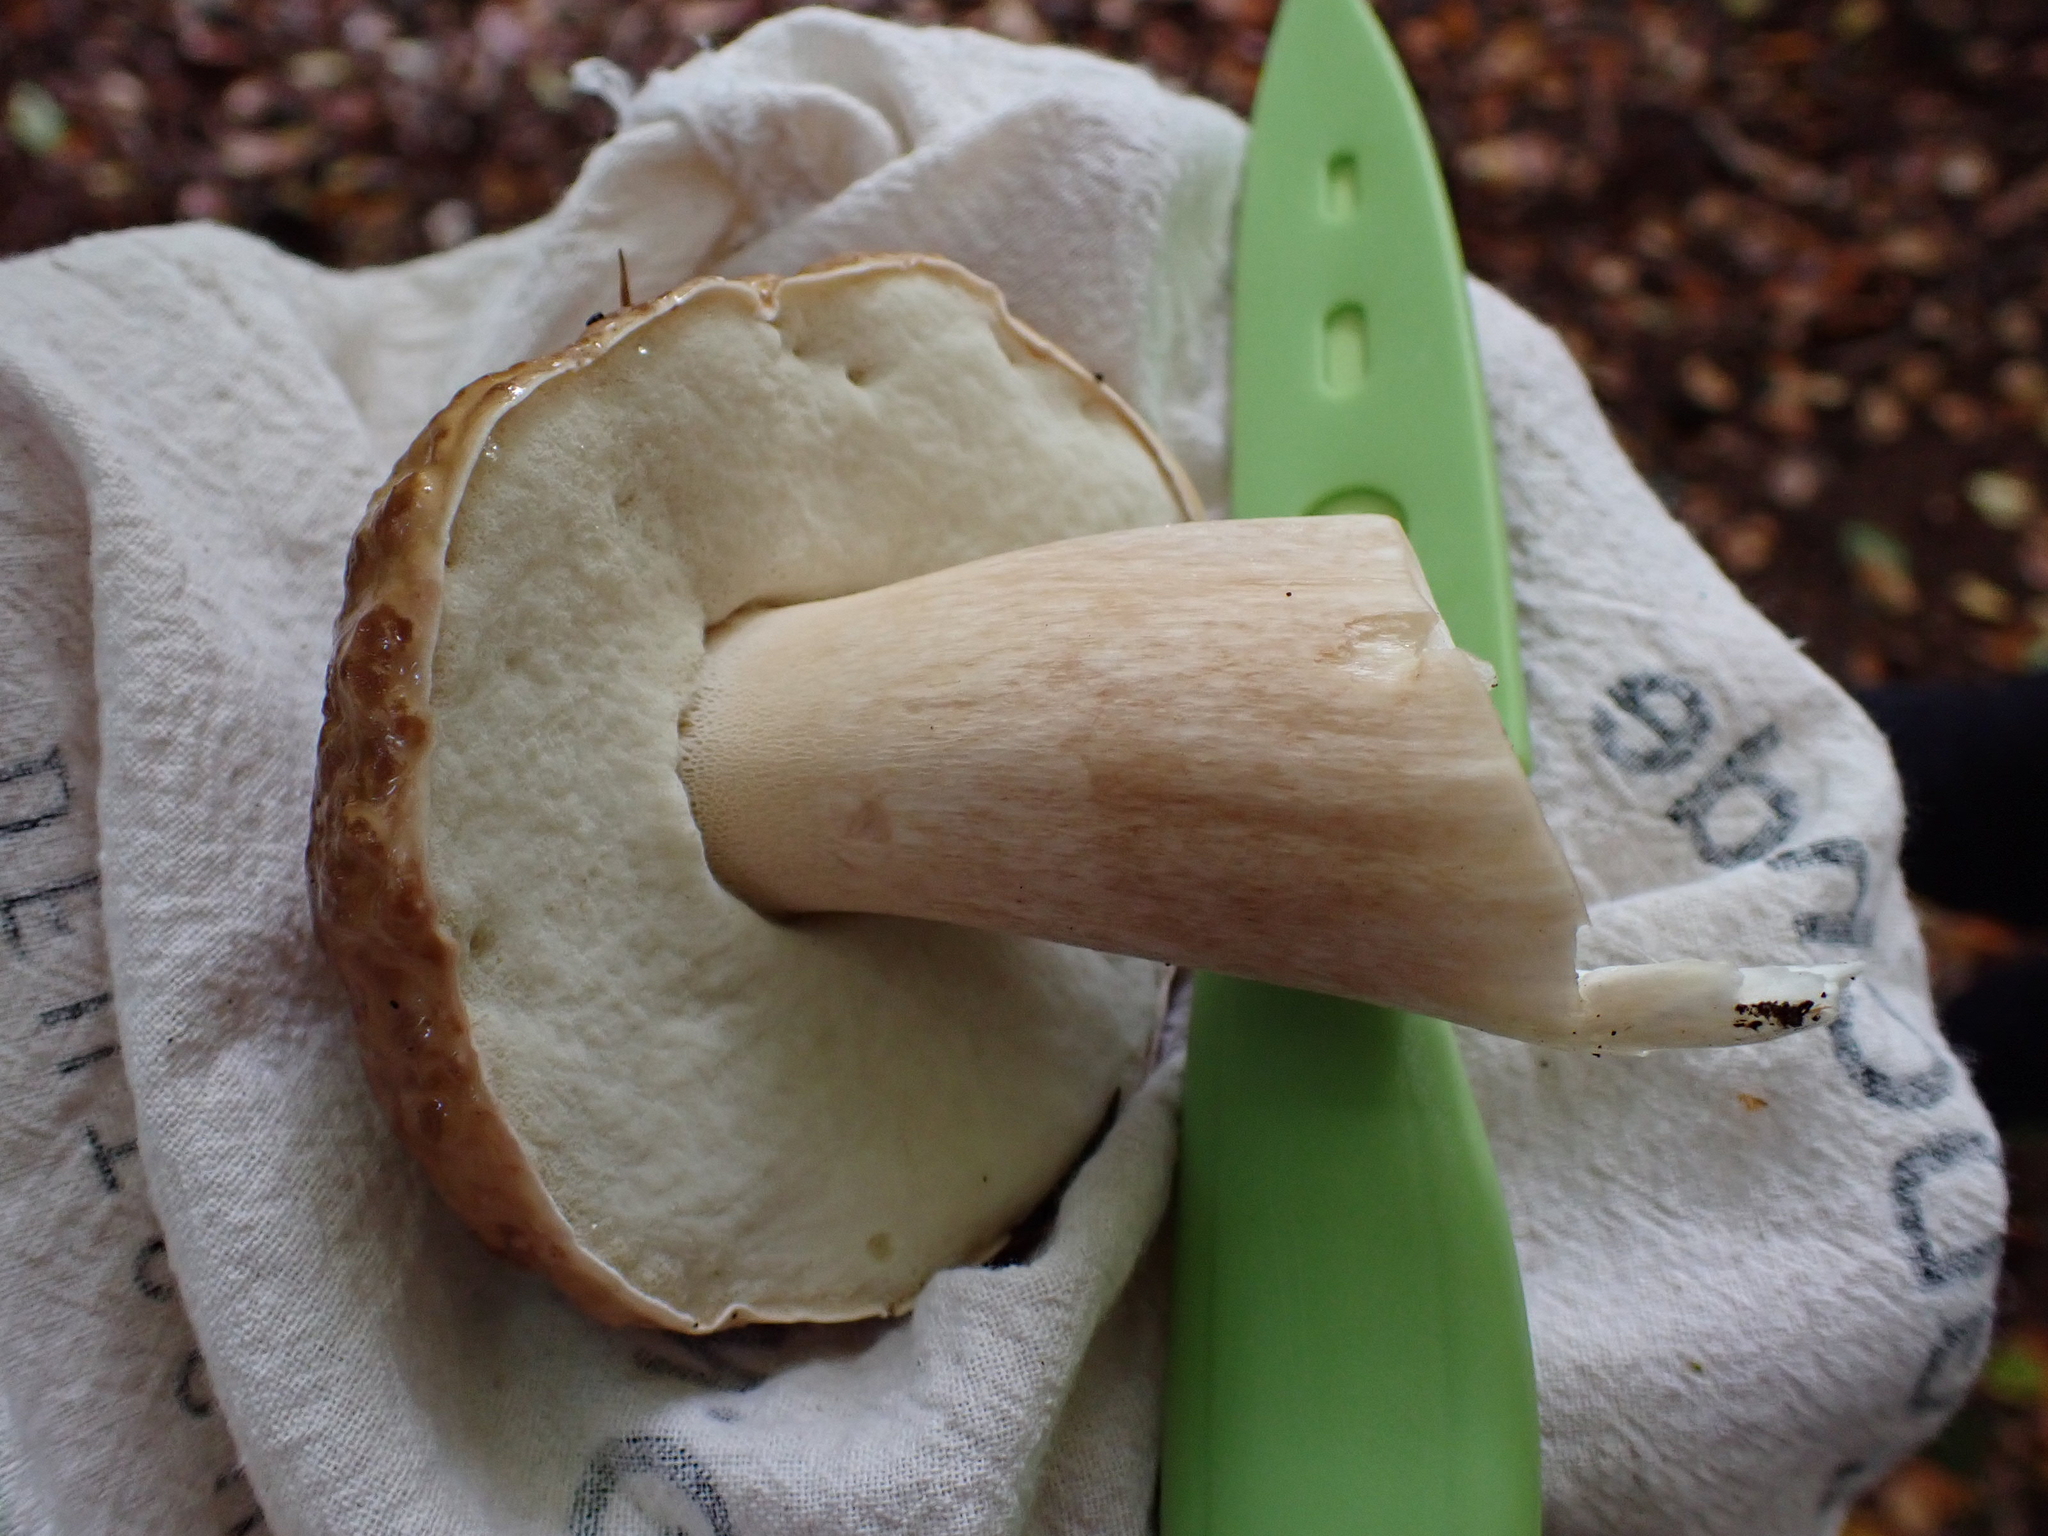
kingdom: Fungi
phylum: Basidiomycota
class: Agaricomycetes
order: Boletales
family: Boletaceae
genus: Boletus
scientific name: Boletus edulis
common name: Cep
